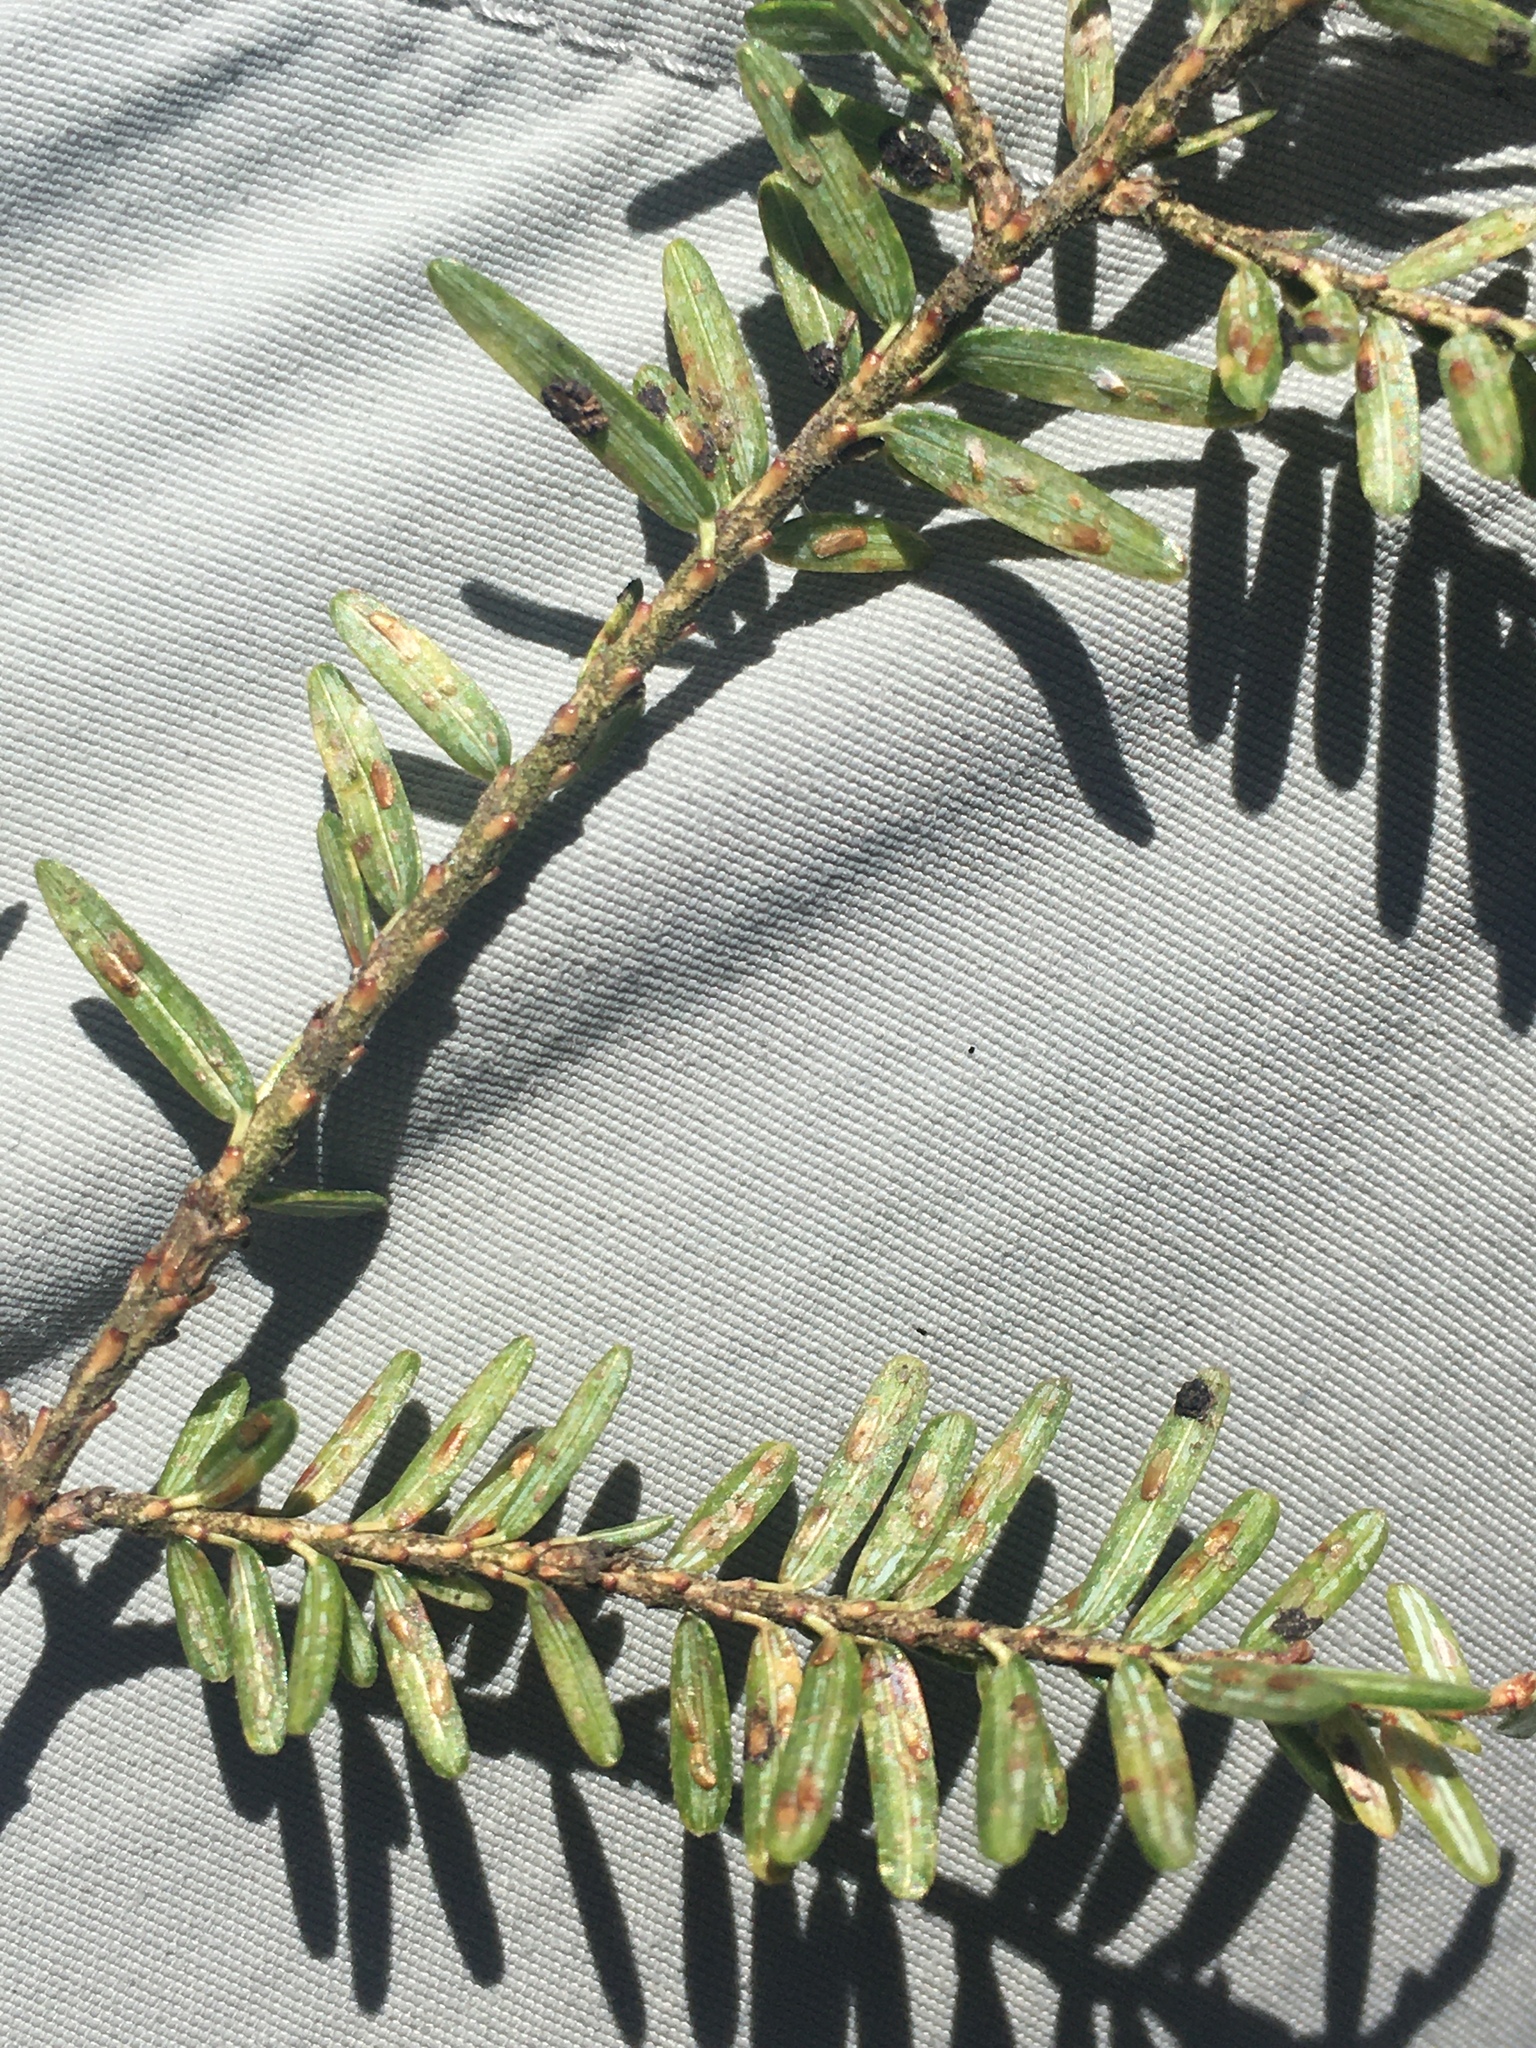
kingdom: Animalia
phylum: Arthropoda
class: Insecta
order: Hemiptera
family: Diaspididae
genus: Fiorinia
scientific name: Fiorinia externa
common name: Elongate hemlock scale
